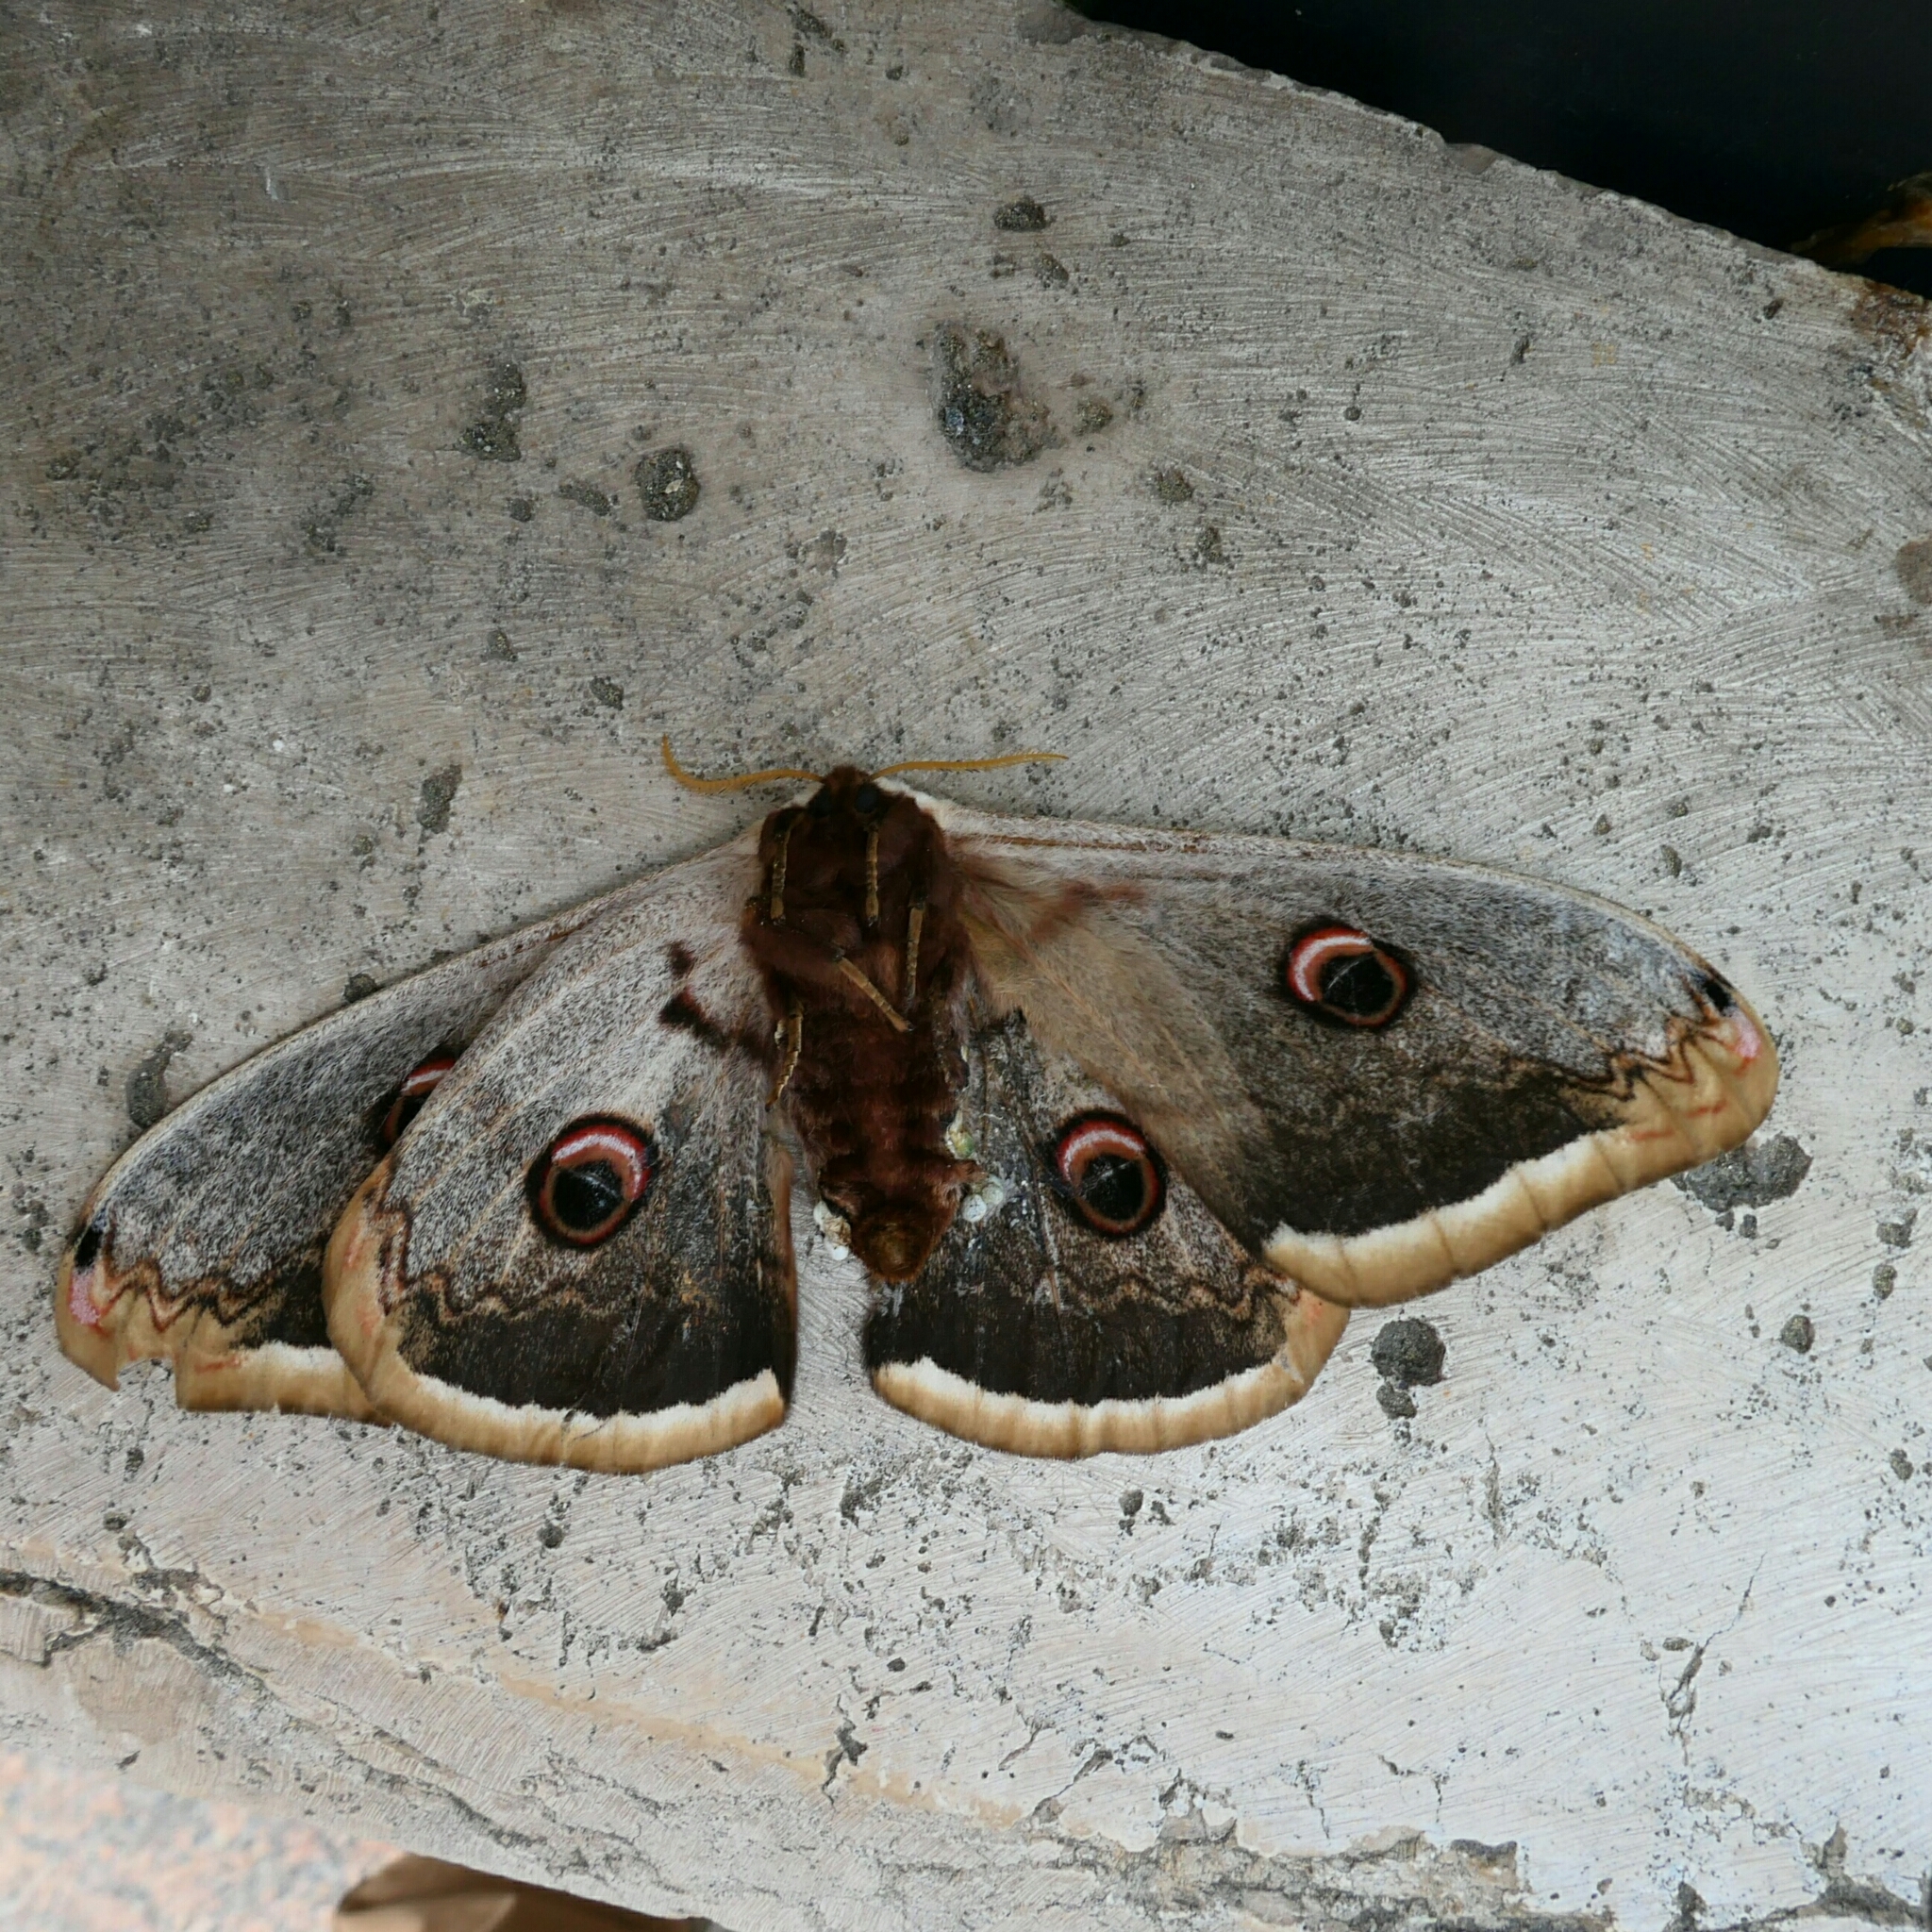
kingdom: Animalia
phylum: Arthropoda
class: Insecta
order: Lepidoptera
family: Saturniidae
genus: Saturnia
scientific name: Saturnia pyri
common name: Great peacock moth
